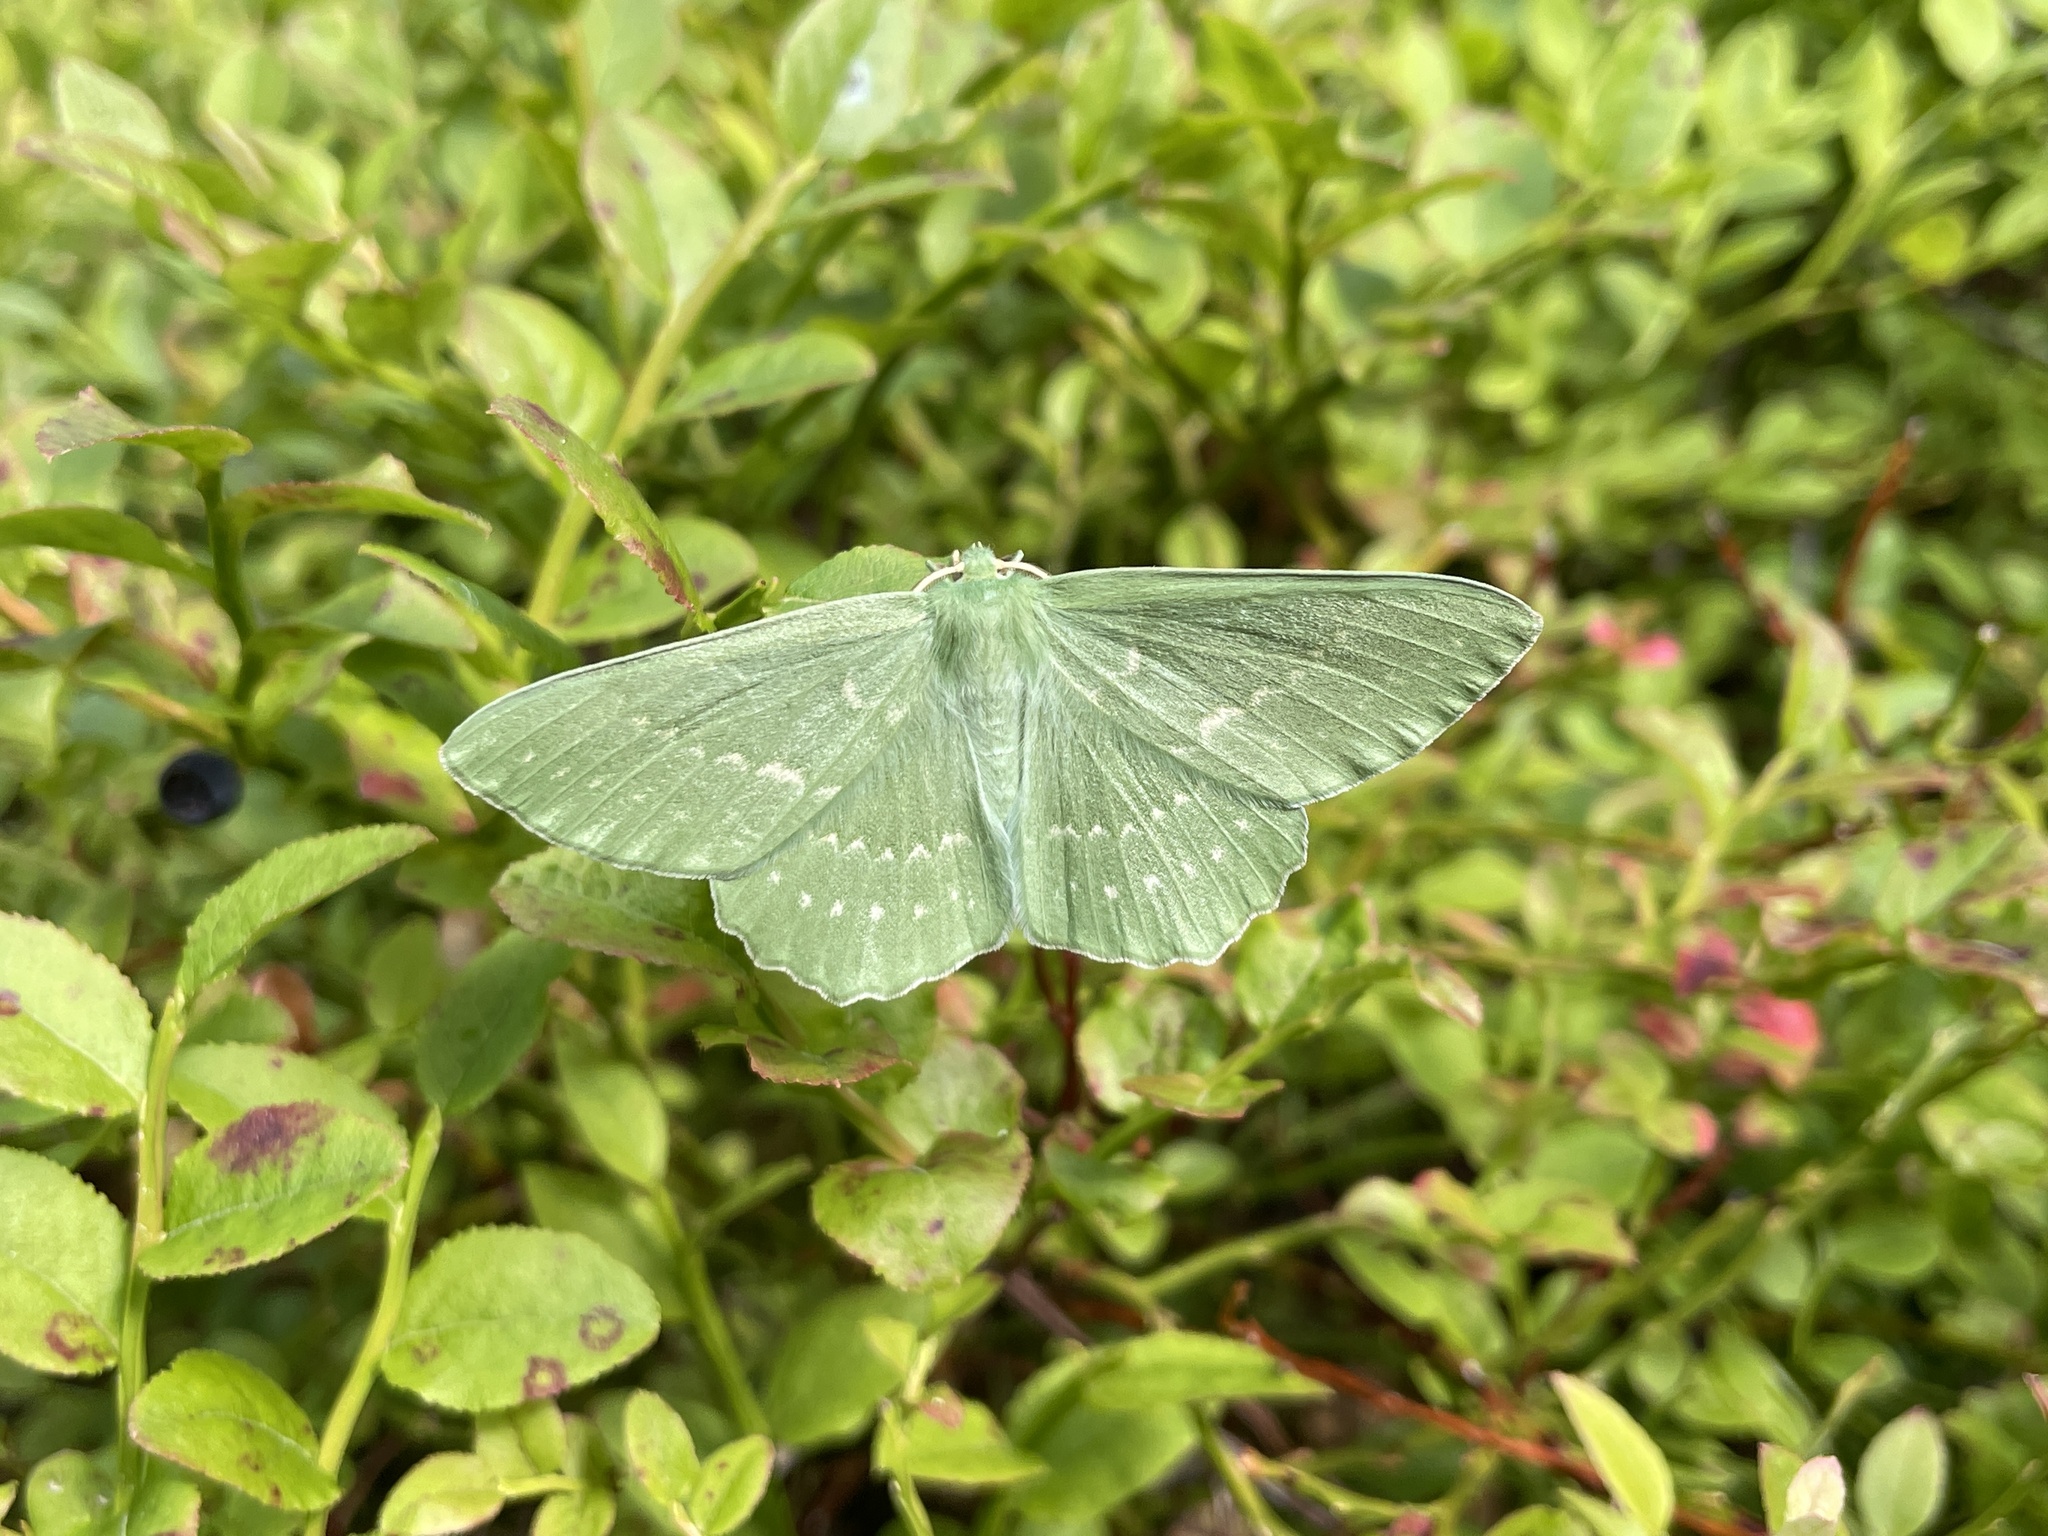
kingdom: Animalia
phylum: Arthropoda
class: Insecta
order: Lepidoptera
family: Geometridae
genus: Geometra
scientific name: Geometra papilionaria
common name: Large emerald
